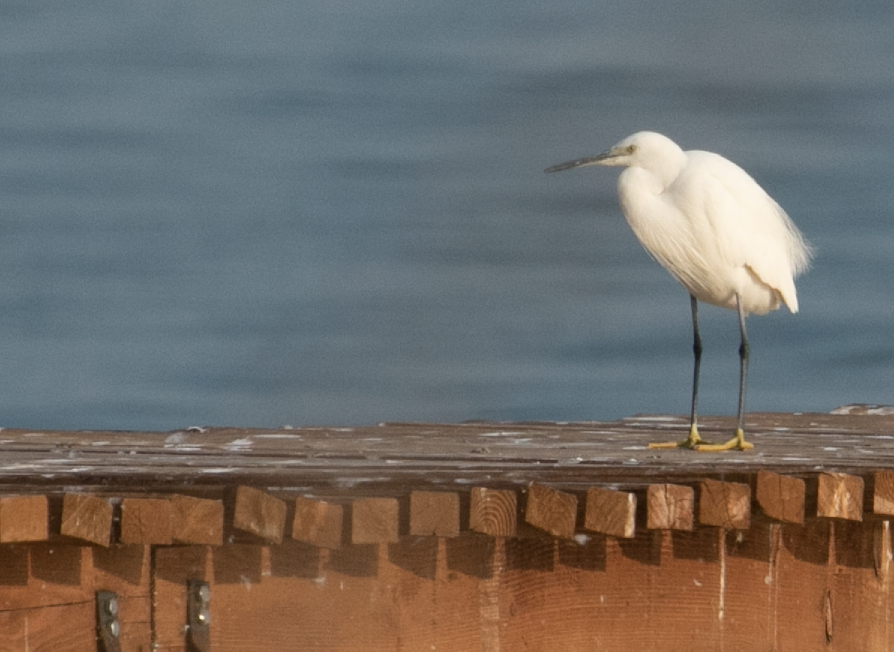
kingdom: Animalia
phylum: Chordata
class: Aves
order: Pelecaniformes
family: Ardeidae
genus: Egretta
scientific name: Egretta garzetta
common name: Little egret
